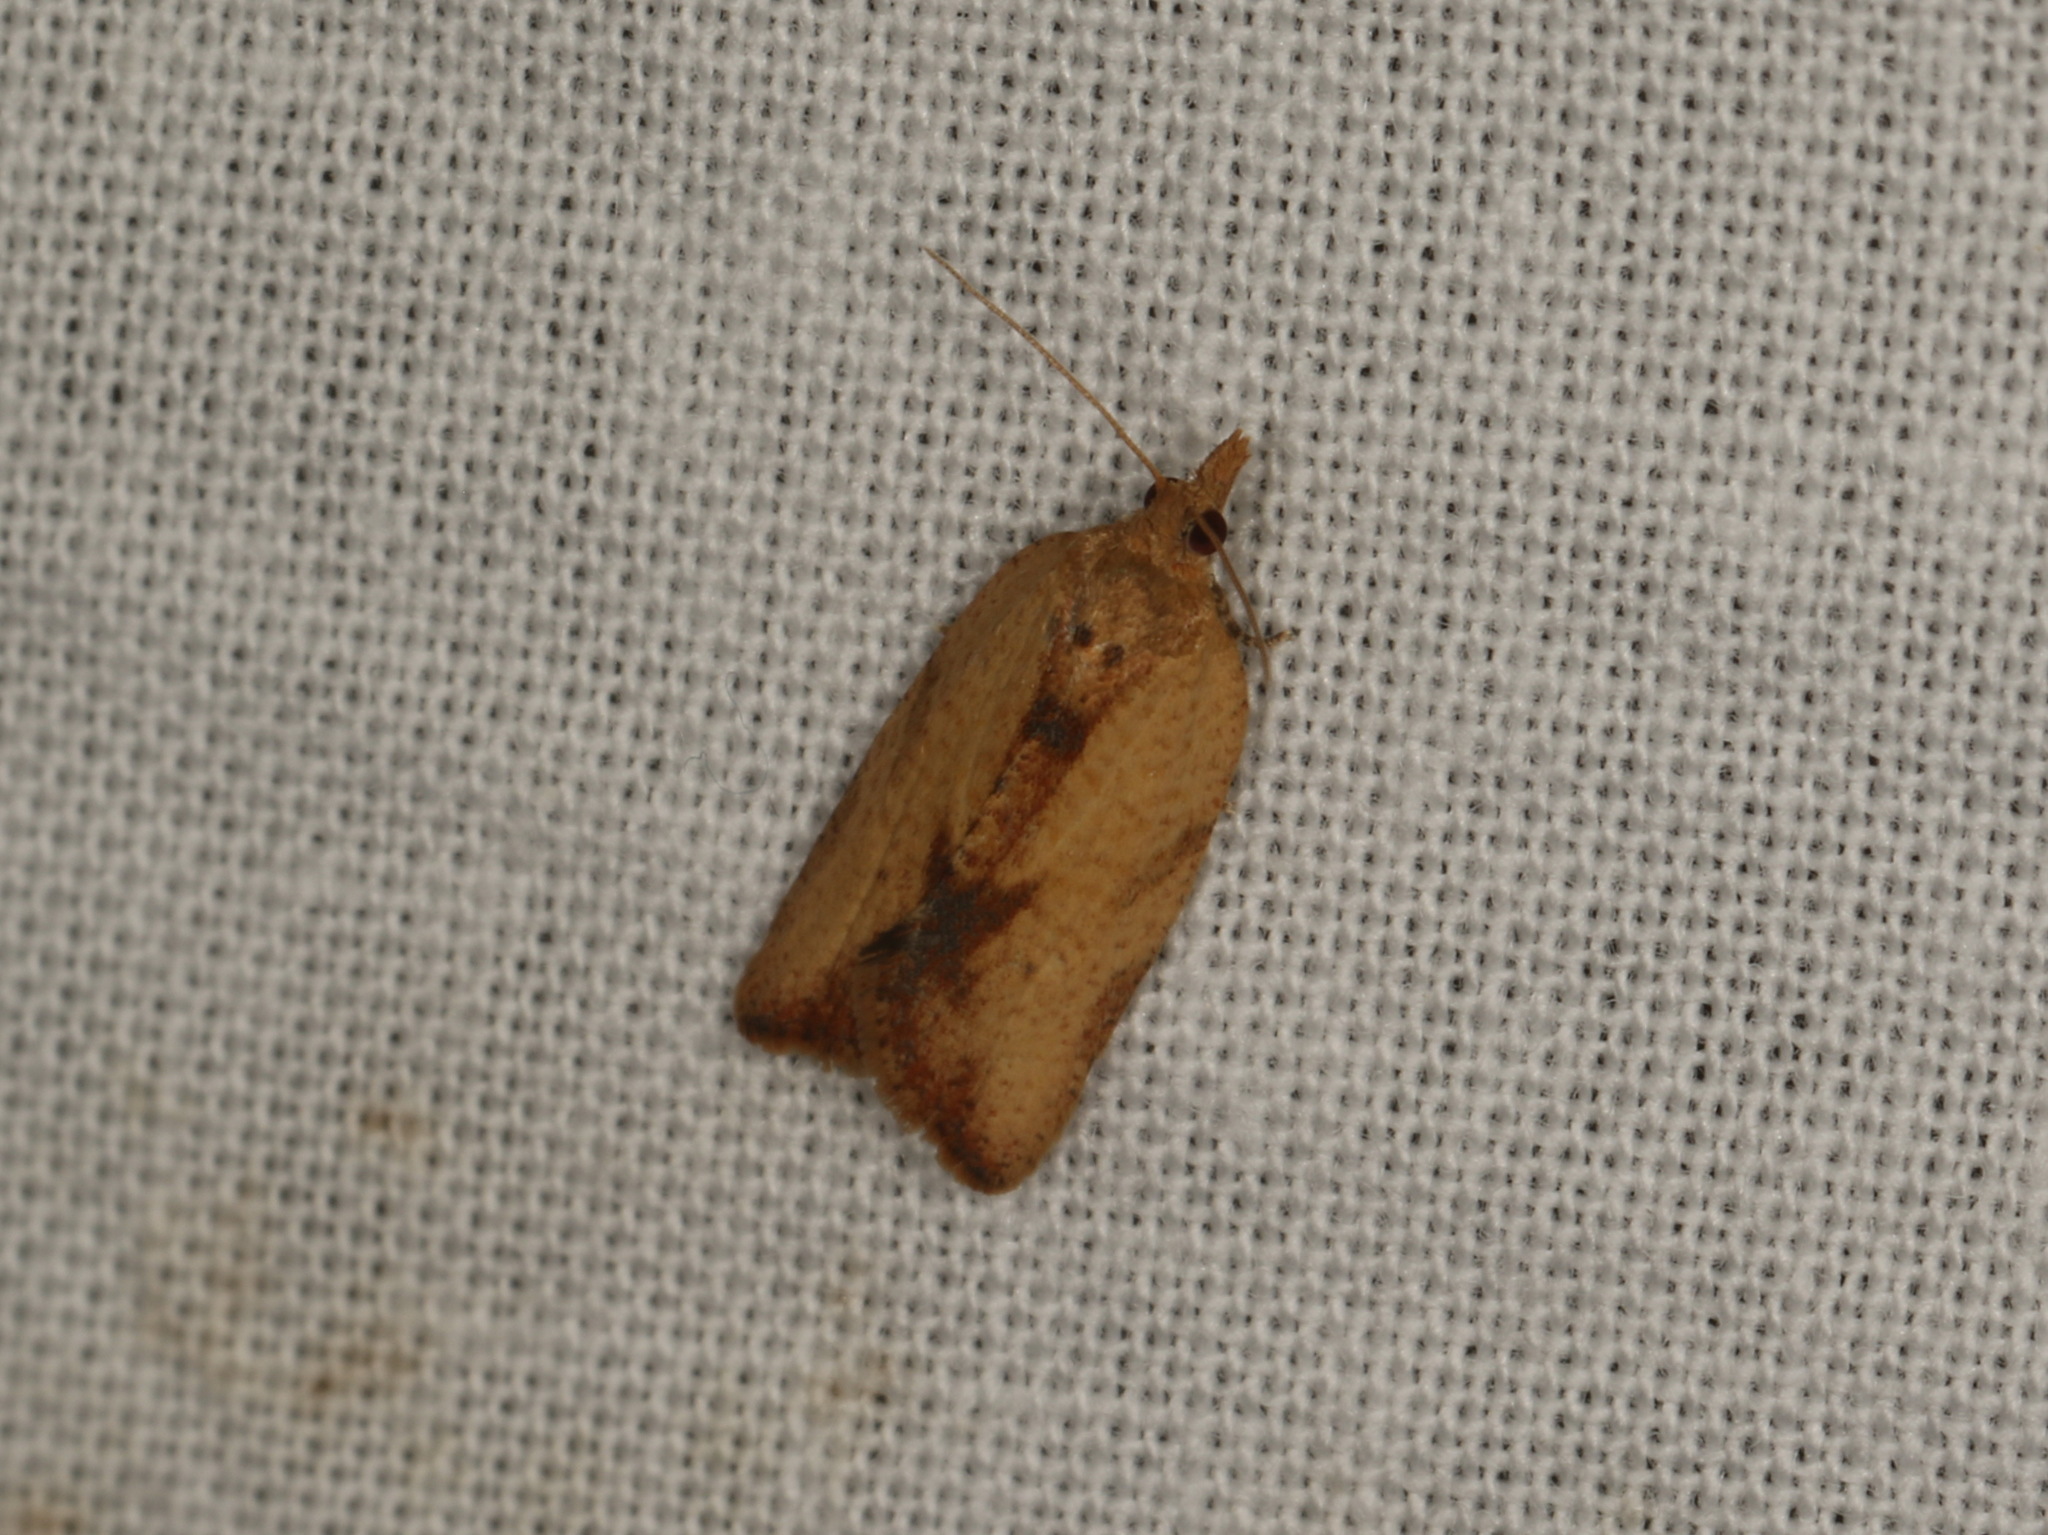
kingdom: Animalia
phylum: Arthropoda
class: Insecta
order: Lepidoptera
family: Tortricidae
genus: Epiphyas
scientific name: Epiphyas postvittana
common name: Light brown apple moth
